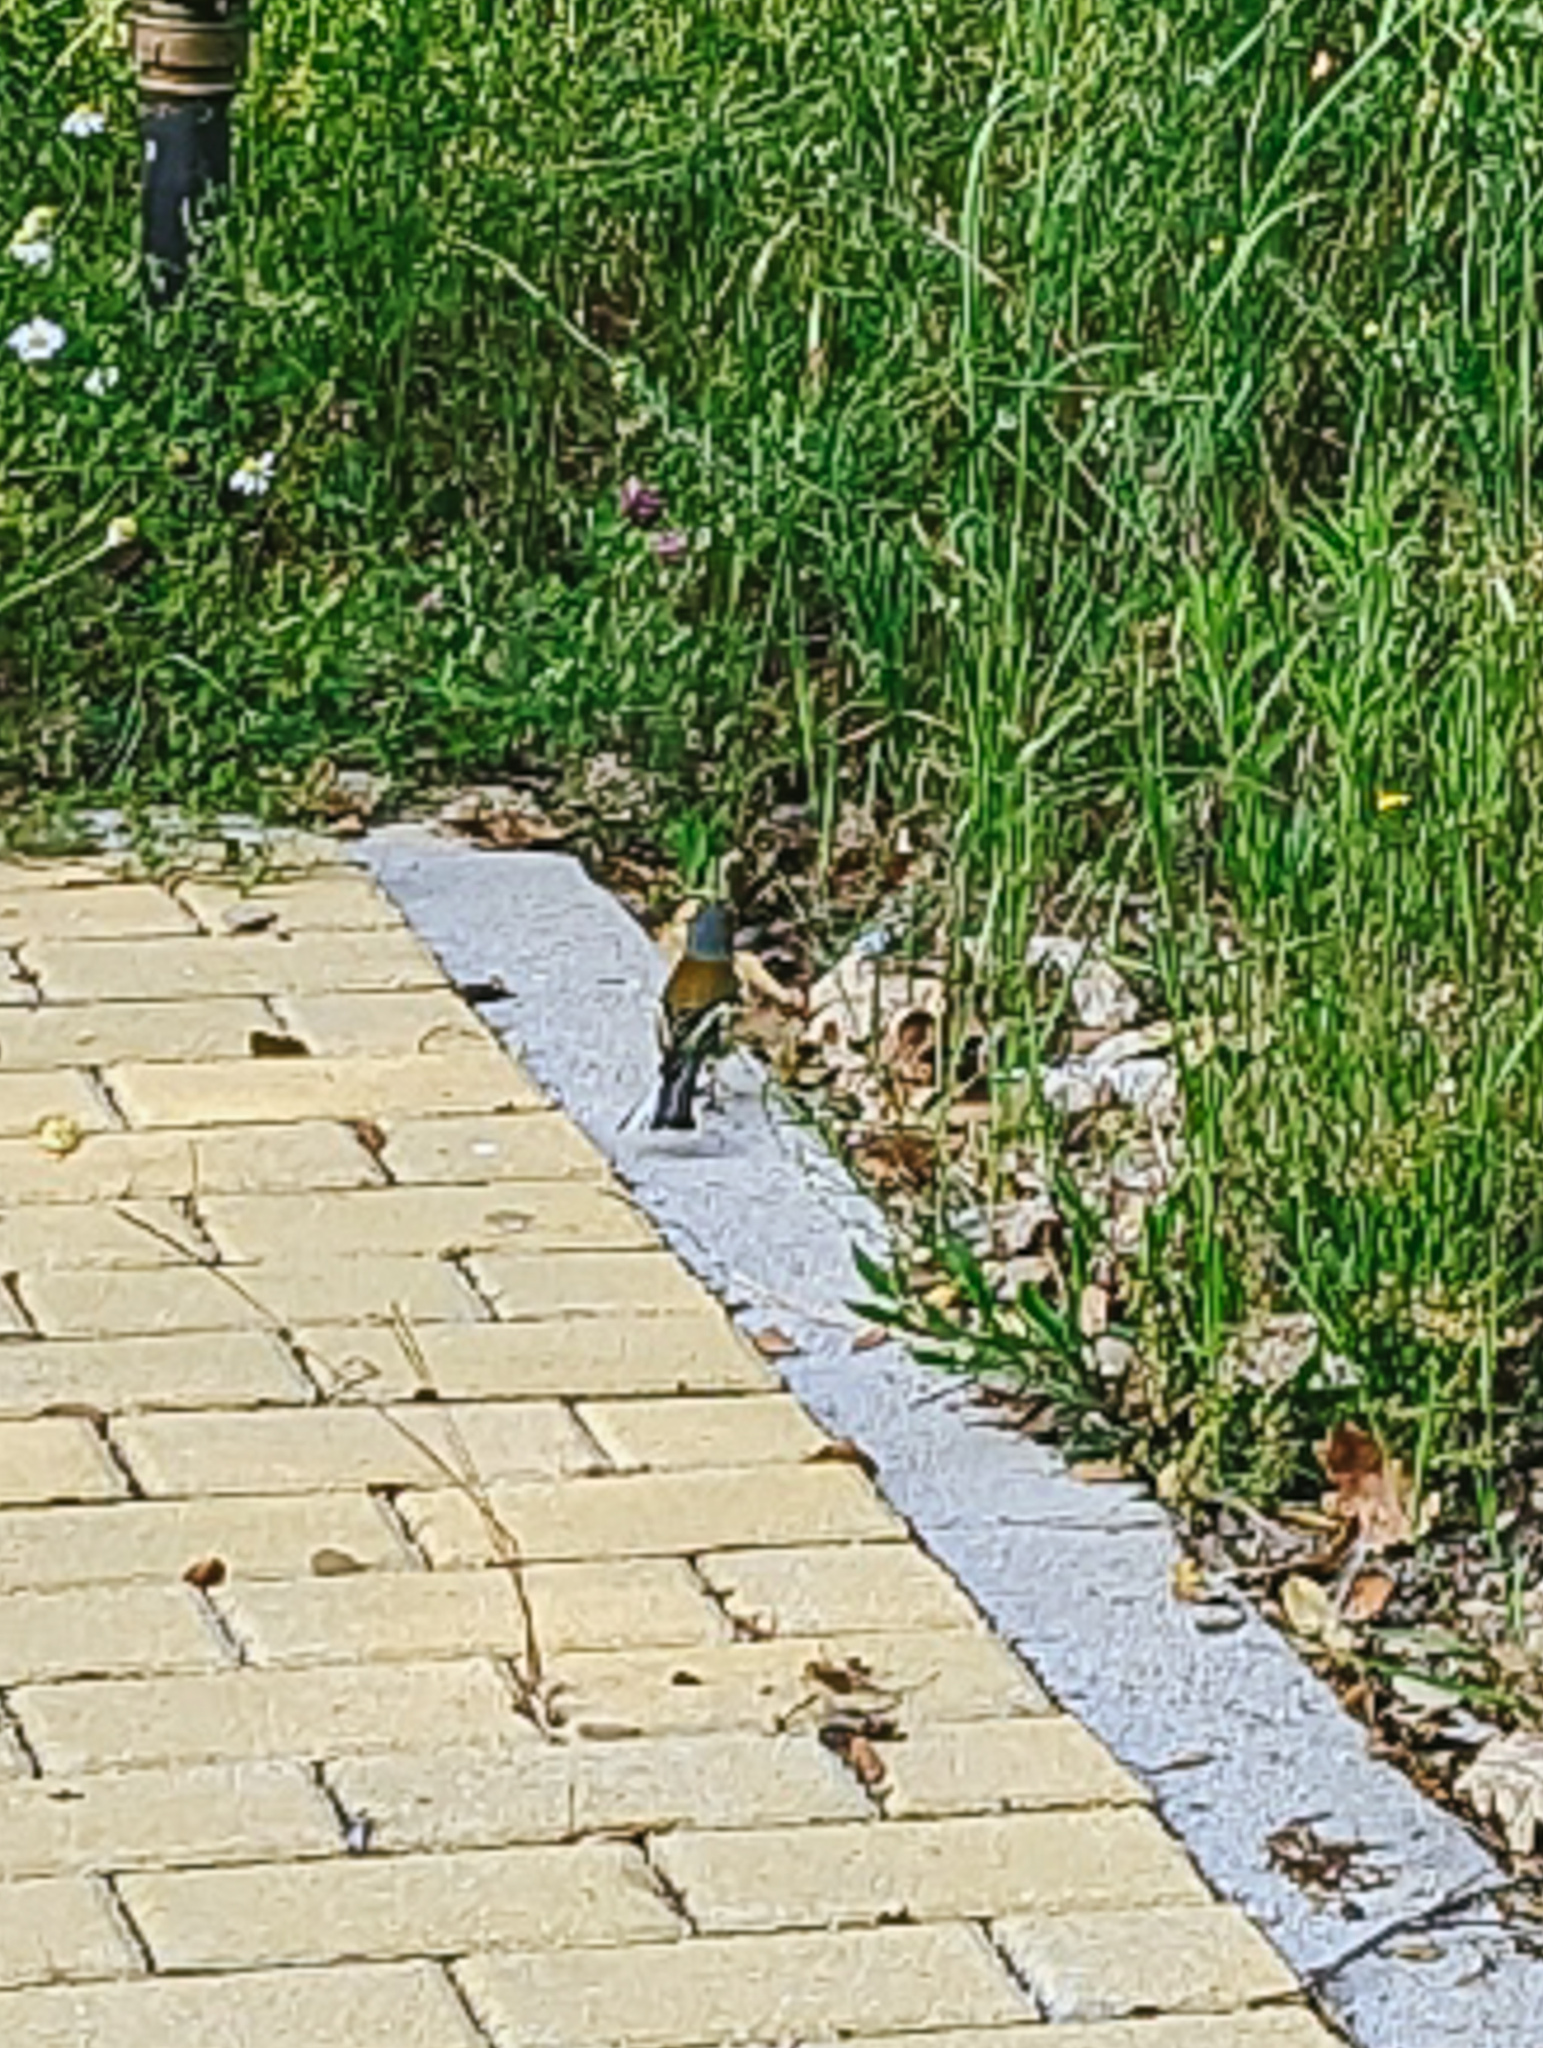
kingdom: Animalia
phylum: Chordata
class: Aves
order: Passeriformes
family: Fringillidae
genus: Fringilla
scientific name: Fringilla coelebs
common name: Common chaffinch
